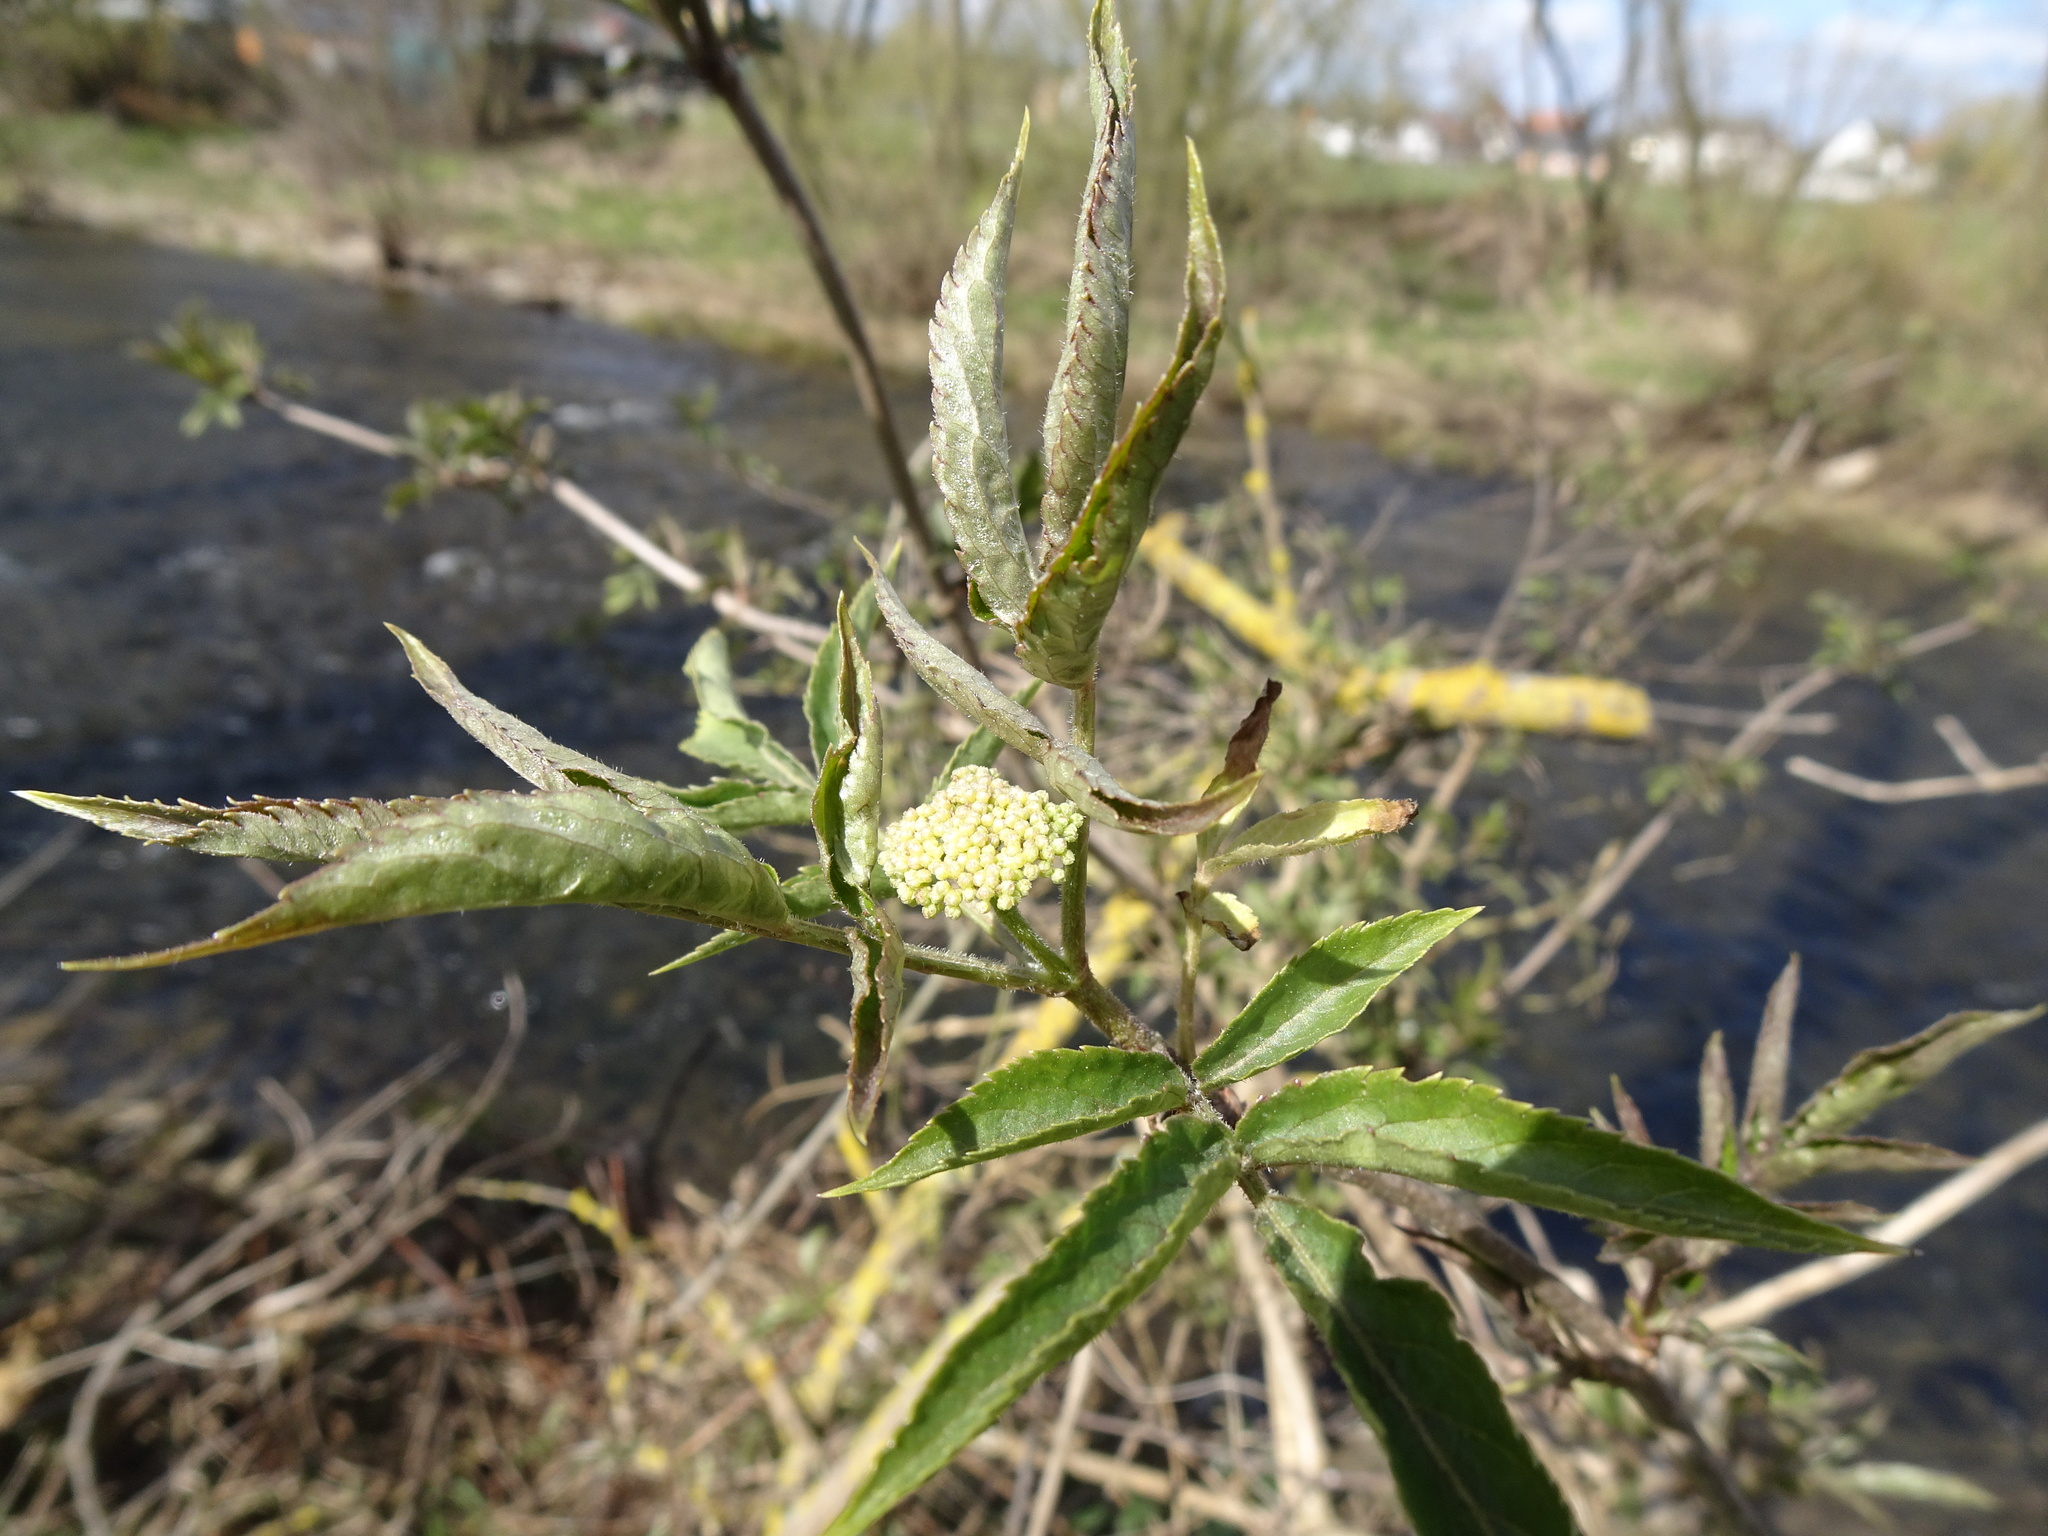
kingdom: Plantae
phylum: Tracheophyta
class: Magnoliopsida
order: Dipsacales
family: Viburnaceae
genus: Sambucus
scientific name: Sambucus nigra
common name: Elder
